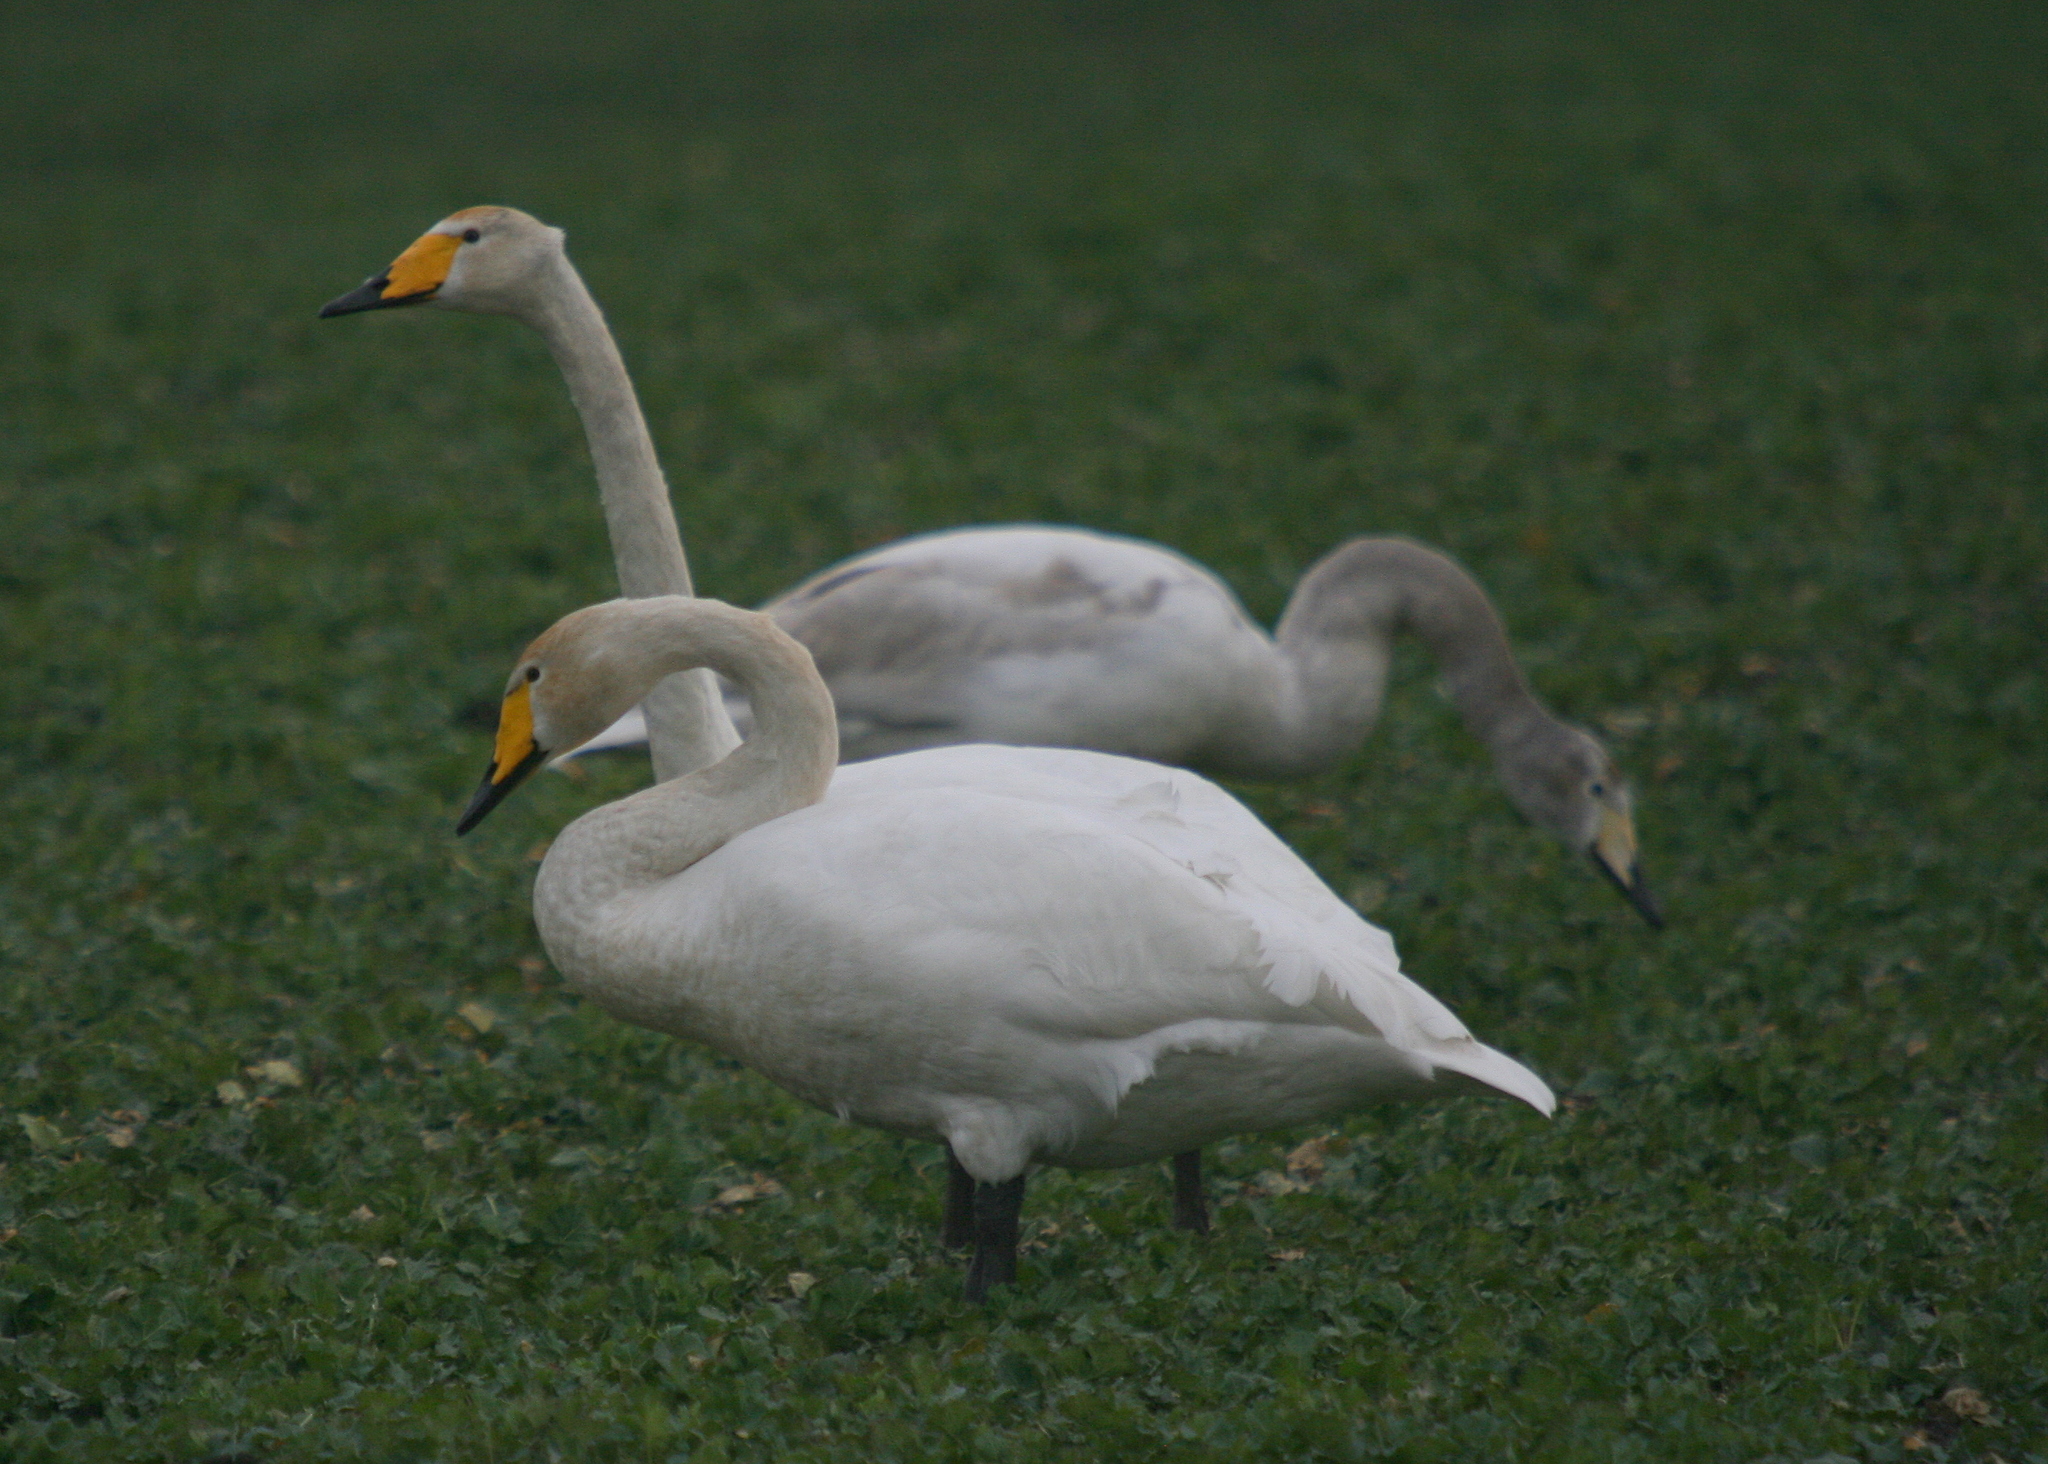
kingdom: Animalia
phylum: Chordata
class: Aves
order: Anseriformes
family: Anatidae
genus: Cygnus
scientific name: Cygnus cygnus
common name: Whooper swan
